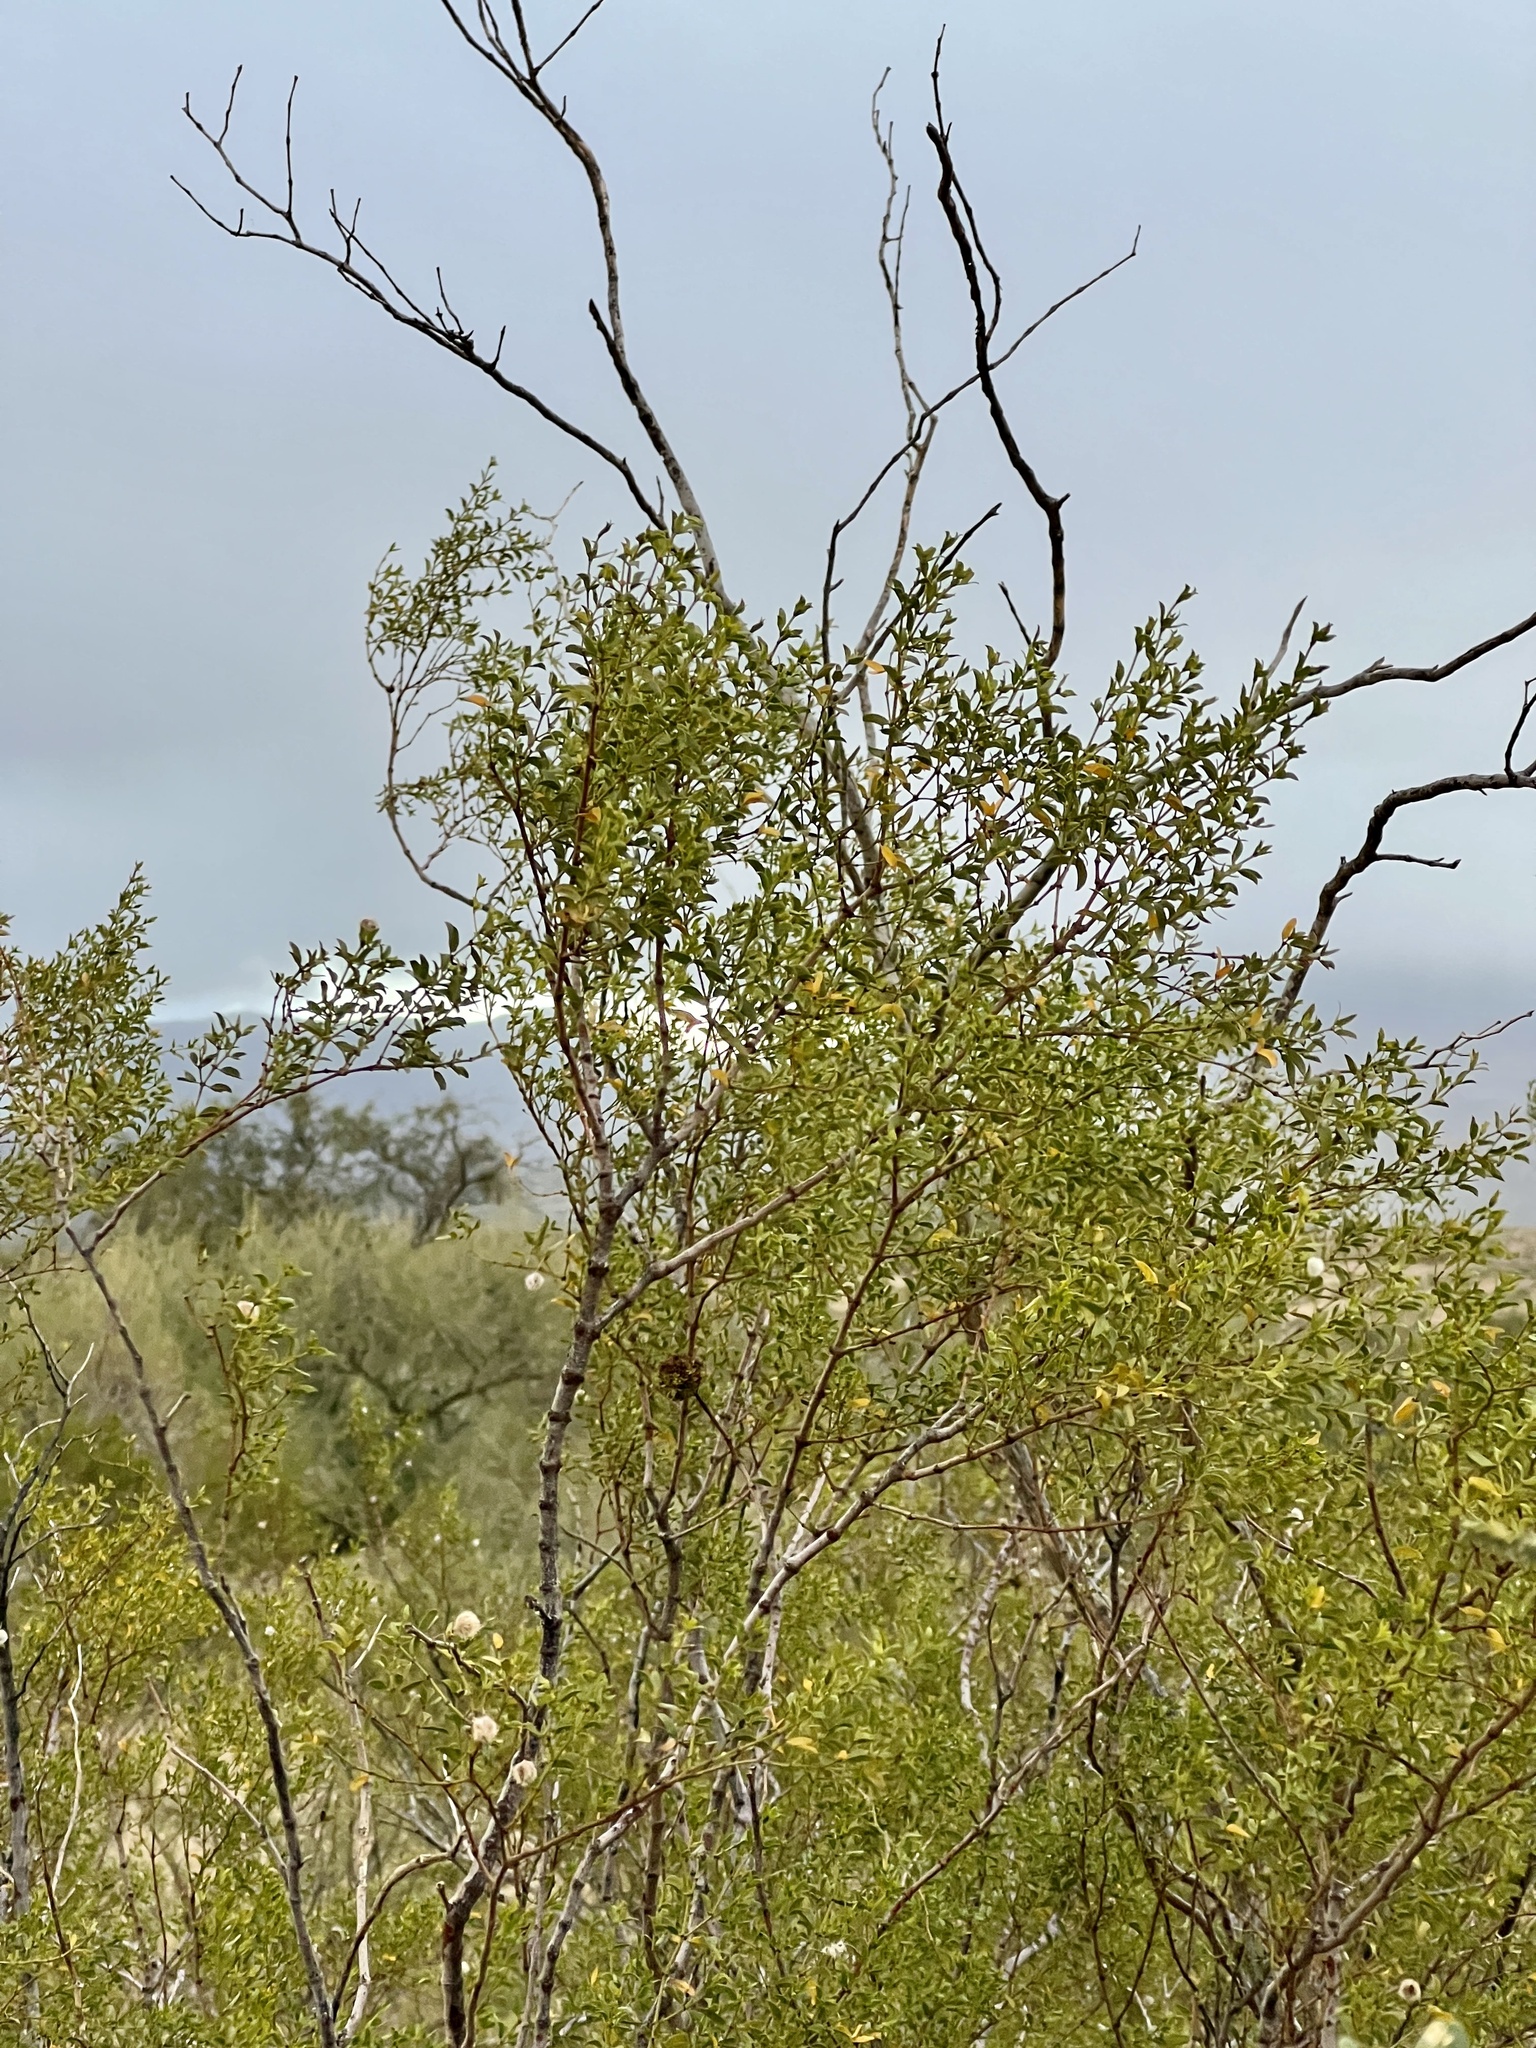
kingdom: Plantae
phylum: Tracheophyta
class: Magnoliopsida
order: Zygophyllales
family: Zygophyllaceae
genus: Larrea
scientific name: Larrea tridentata
